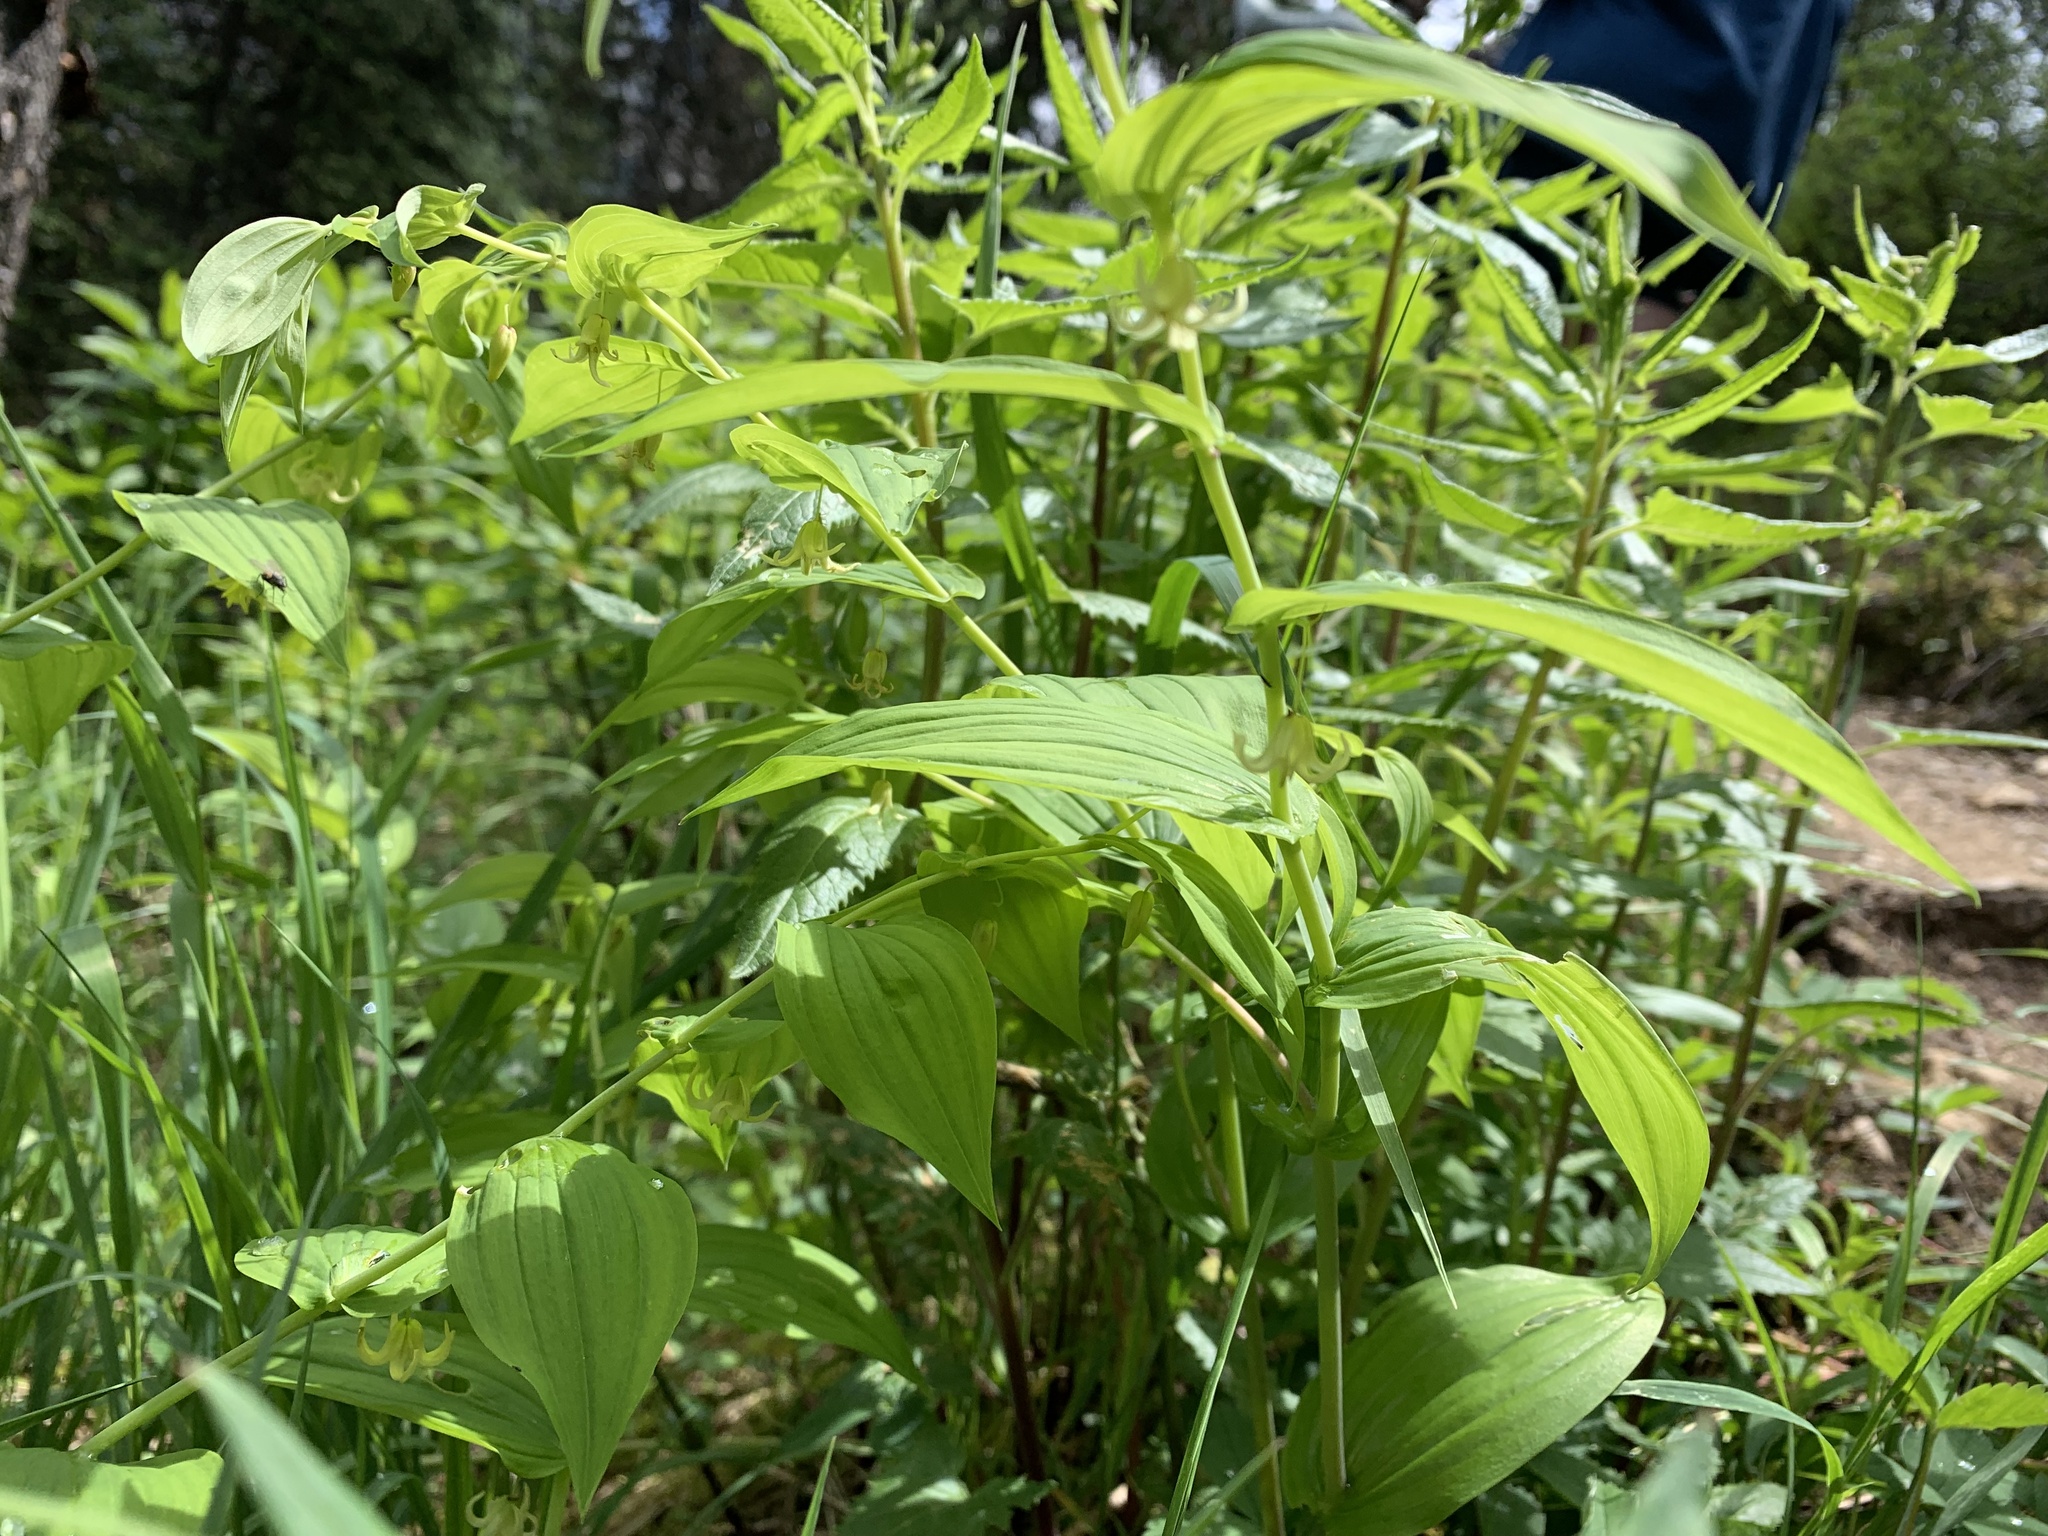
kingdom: Plantae
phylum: Tracheophyta
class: Liliopsida
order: Liliales
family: Liliaceae
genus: Streptopus
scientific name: Streptopus amplexifolius
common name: Clasp twisted stalk
